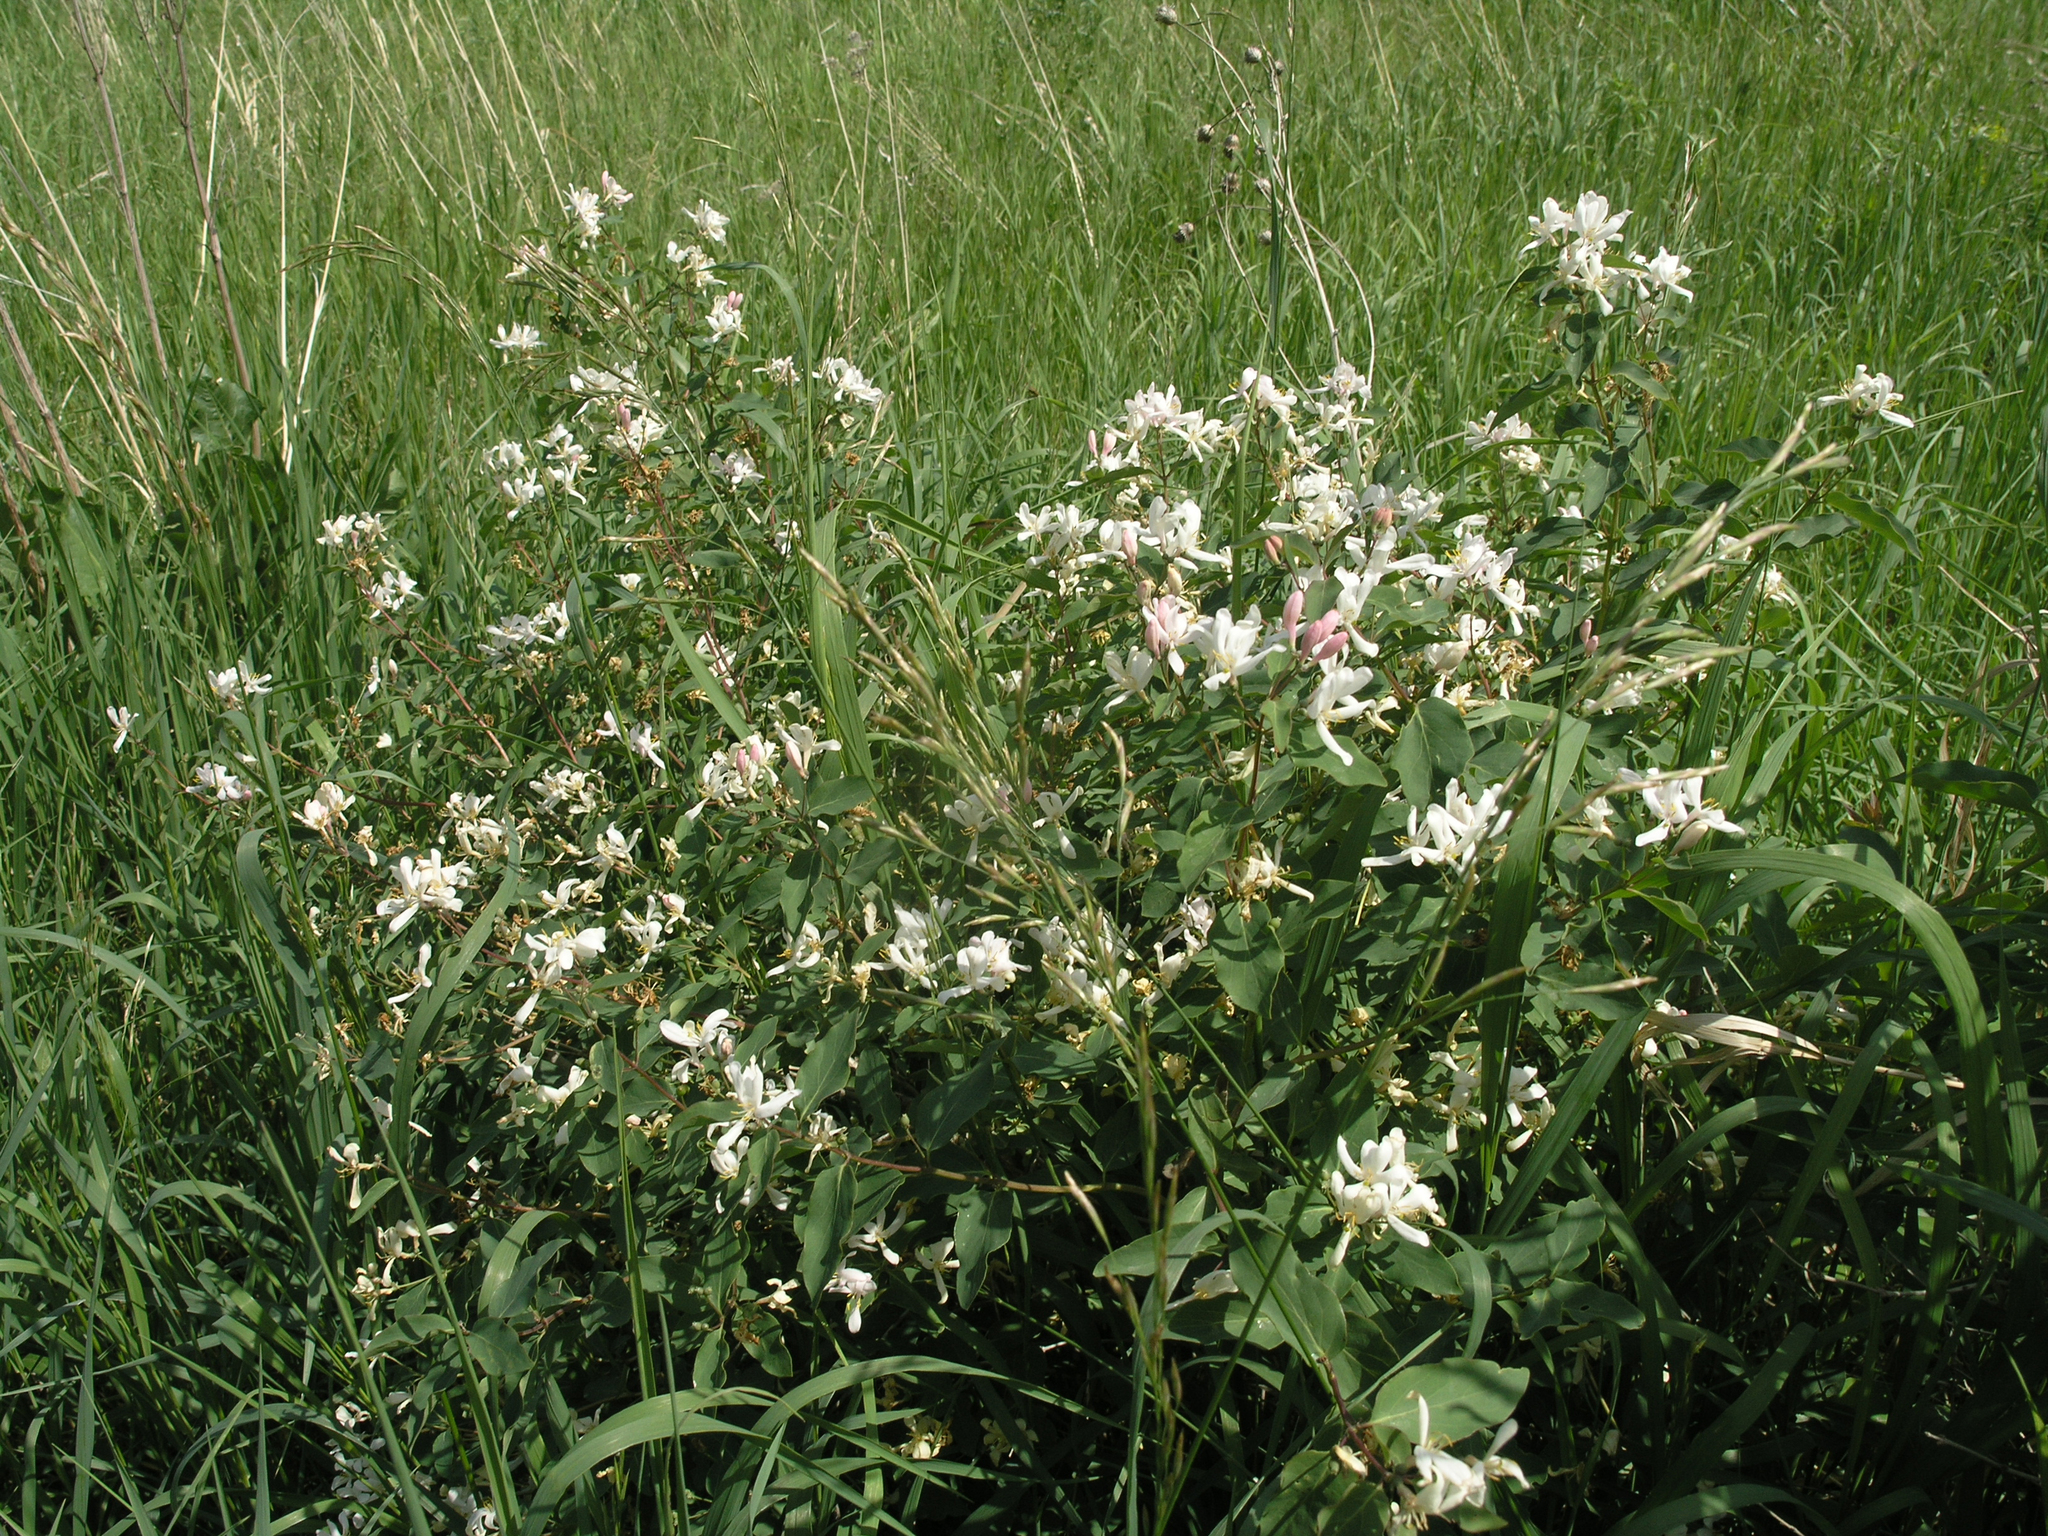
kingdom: Plantae
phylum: Tracheophyta
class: Magnoliopsida
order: Dipsacales
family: Caprifoliaceae
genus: Lonicera
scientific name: Lonicera tatarica
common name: Tatarian honeysuckle
